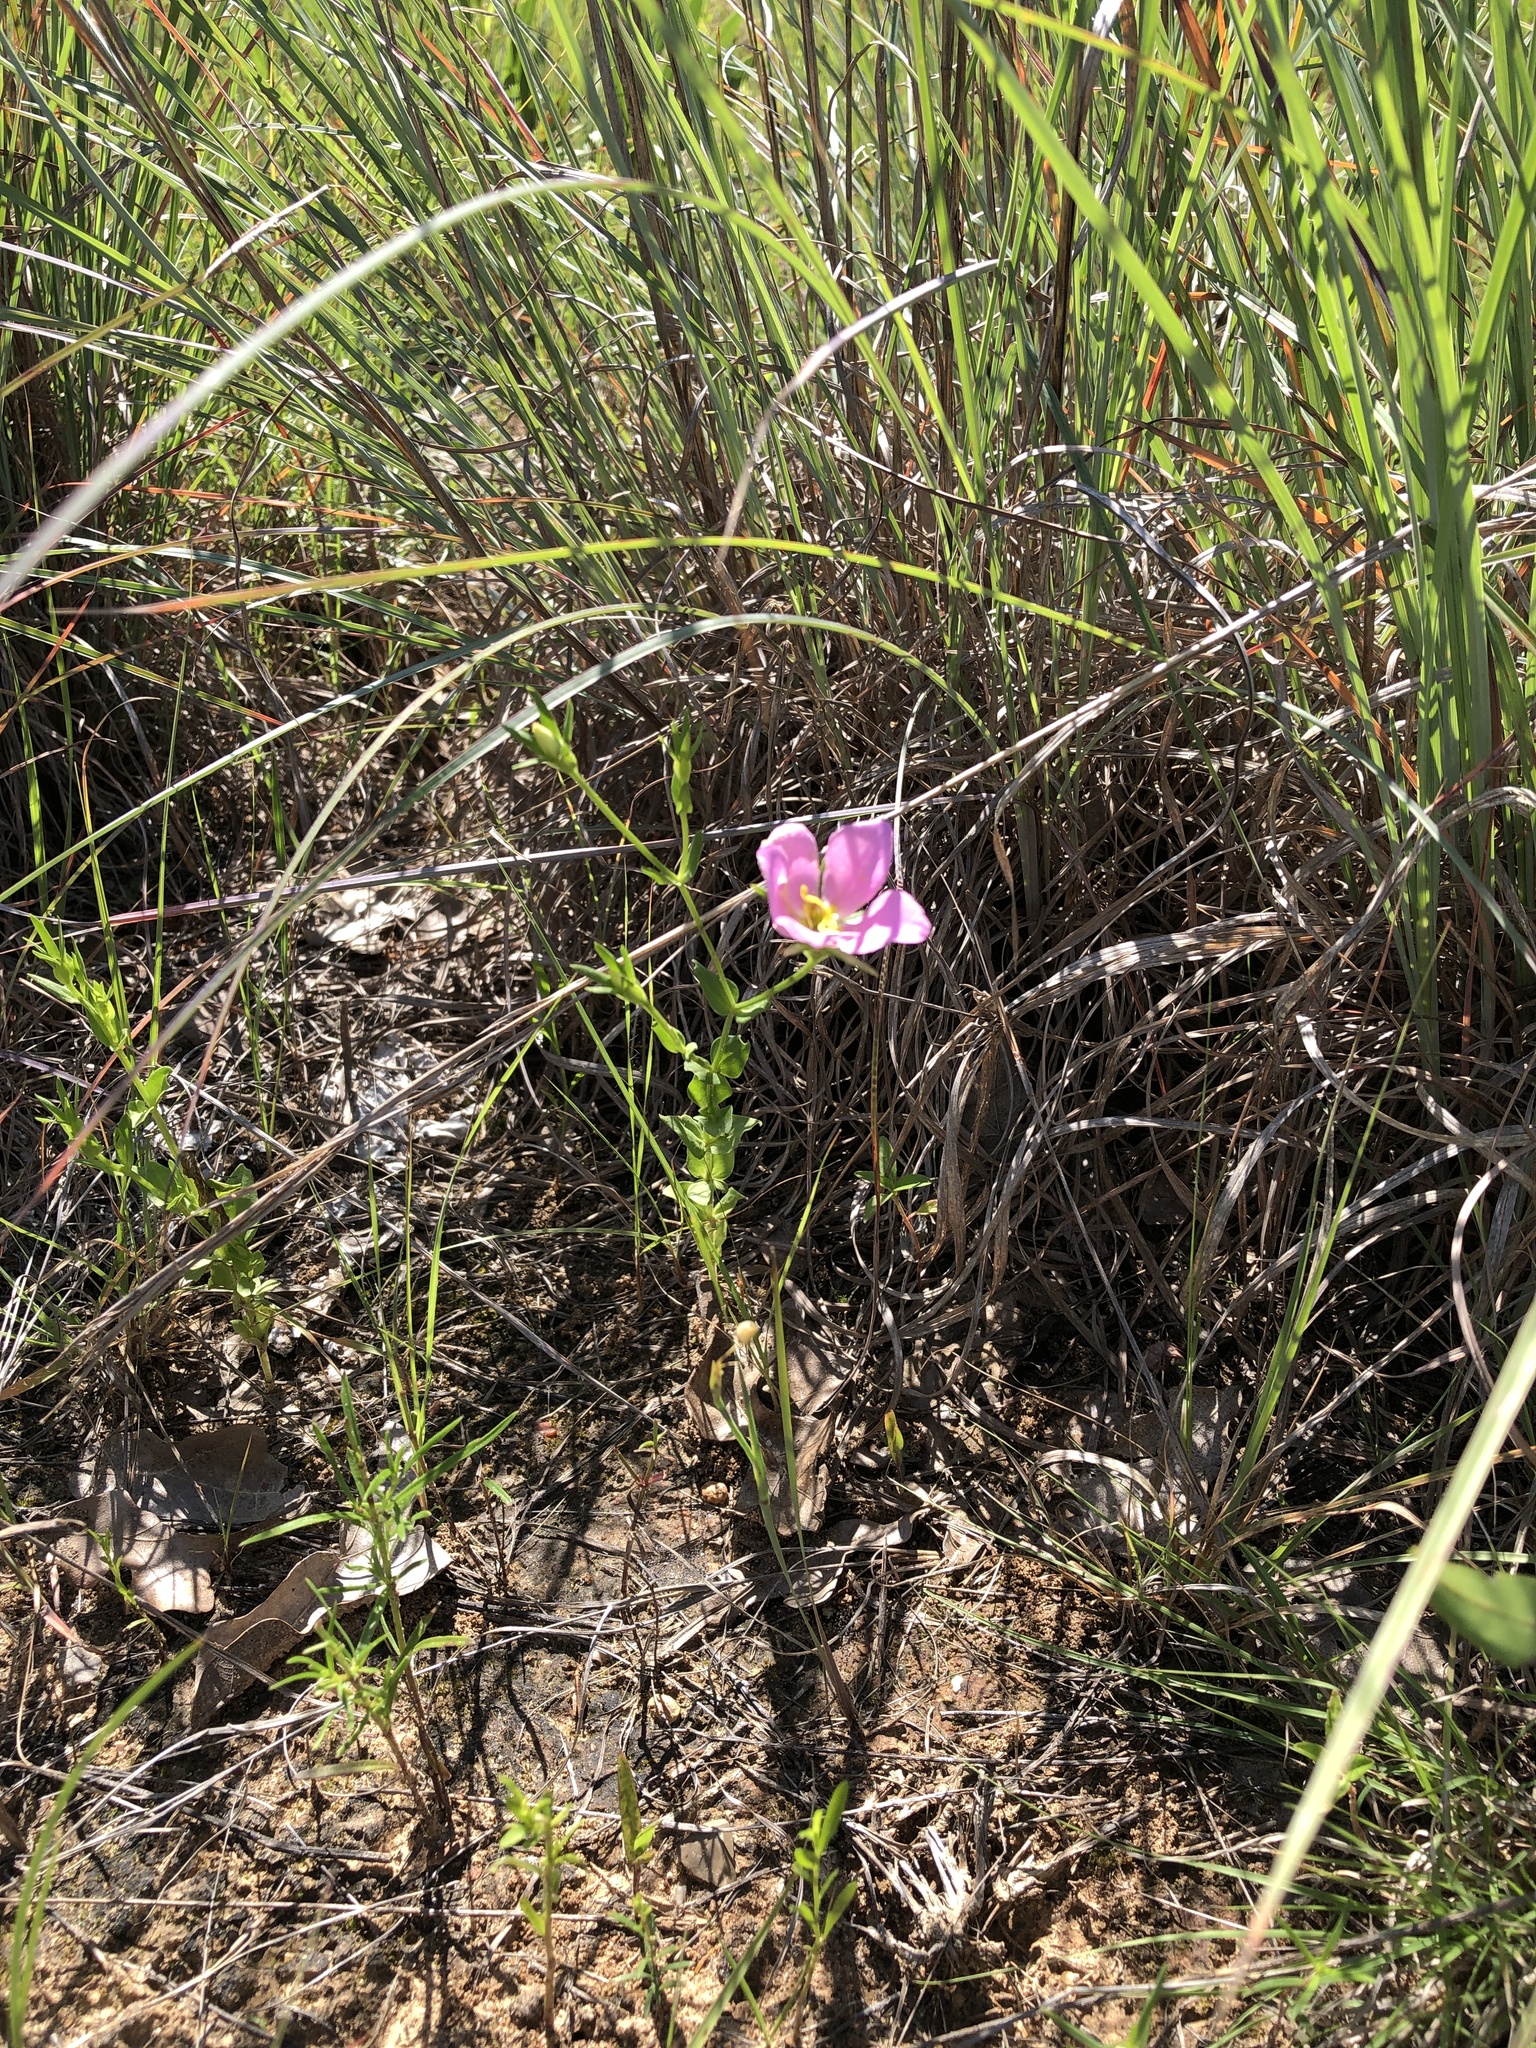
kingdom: Plantae
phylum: Tracheophyta
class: Magnoliopsida
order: Gentianales
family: Gentianaceae
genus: Sabatia
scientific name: Sabatia campestris
